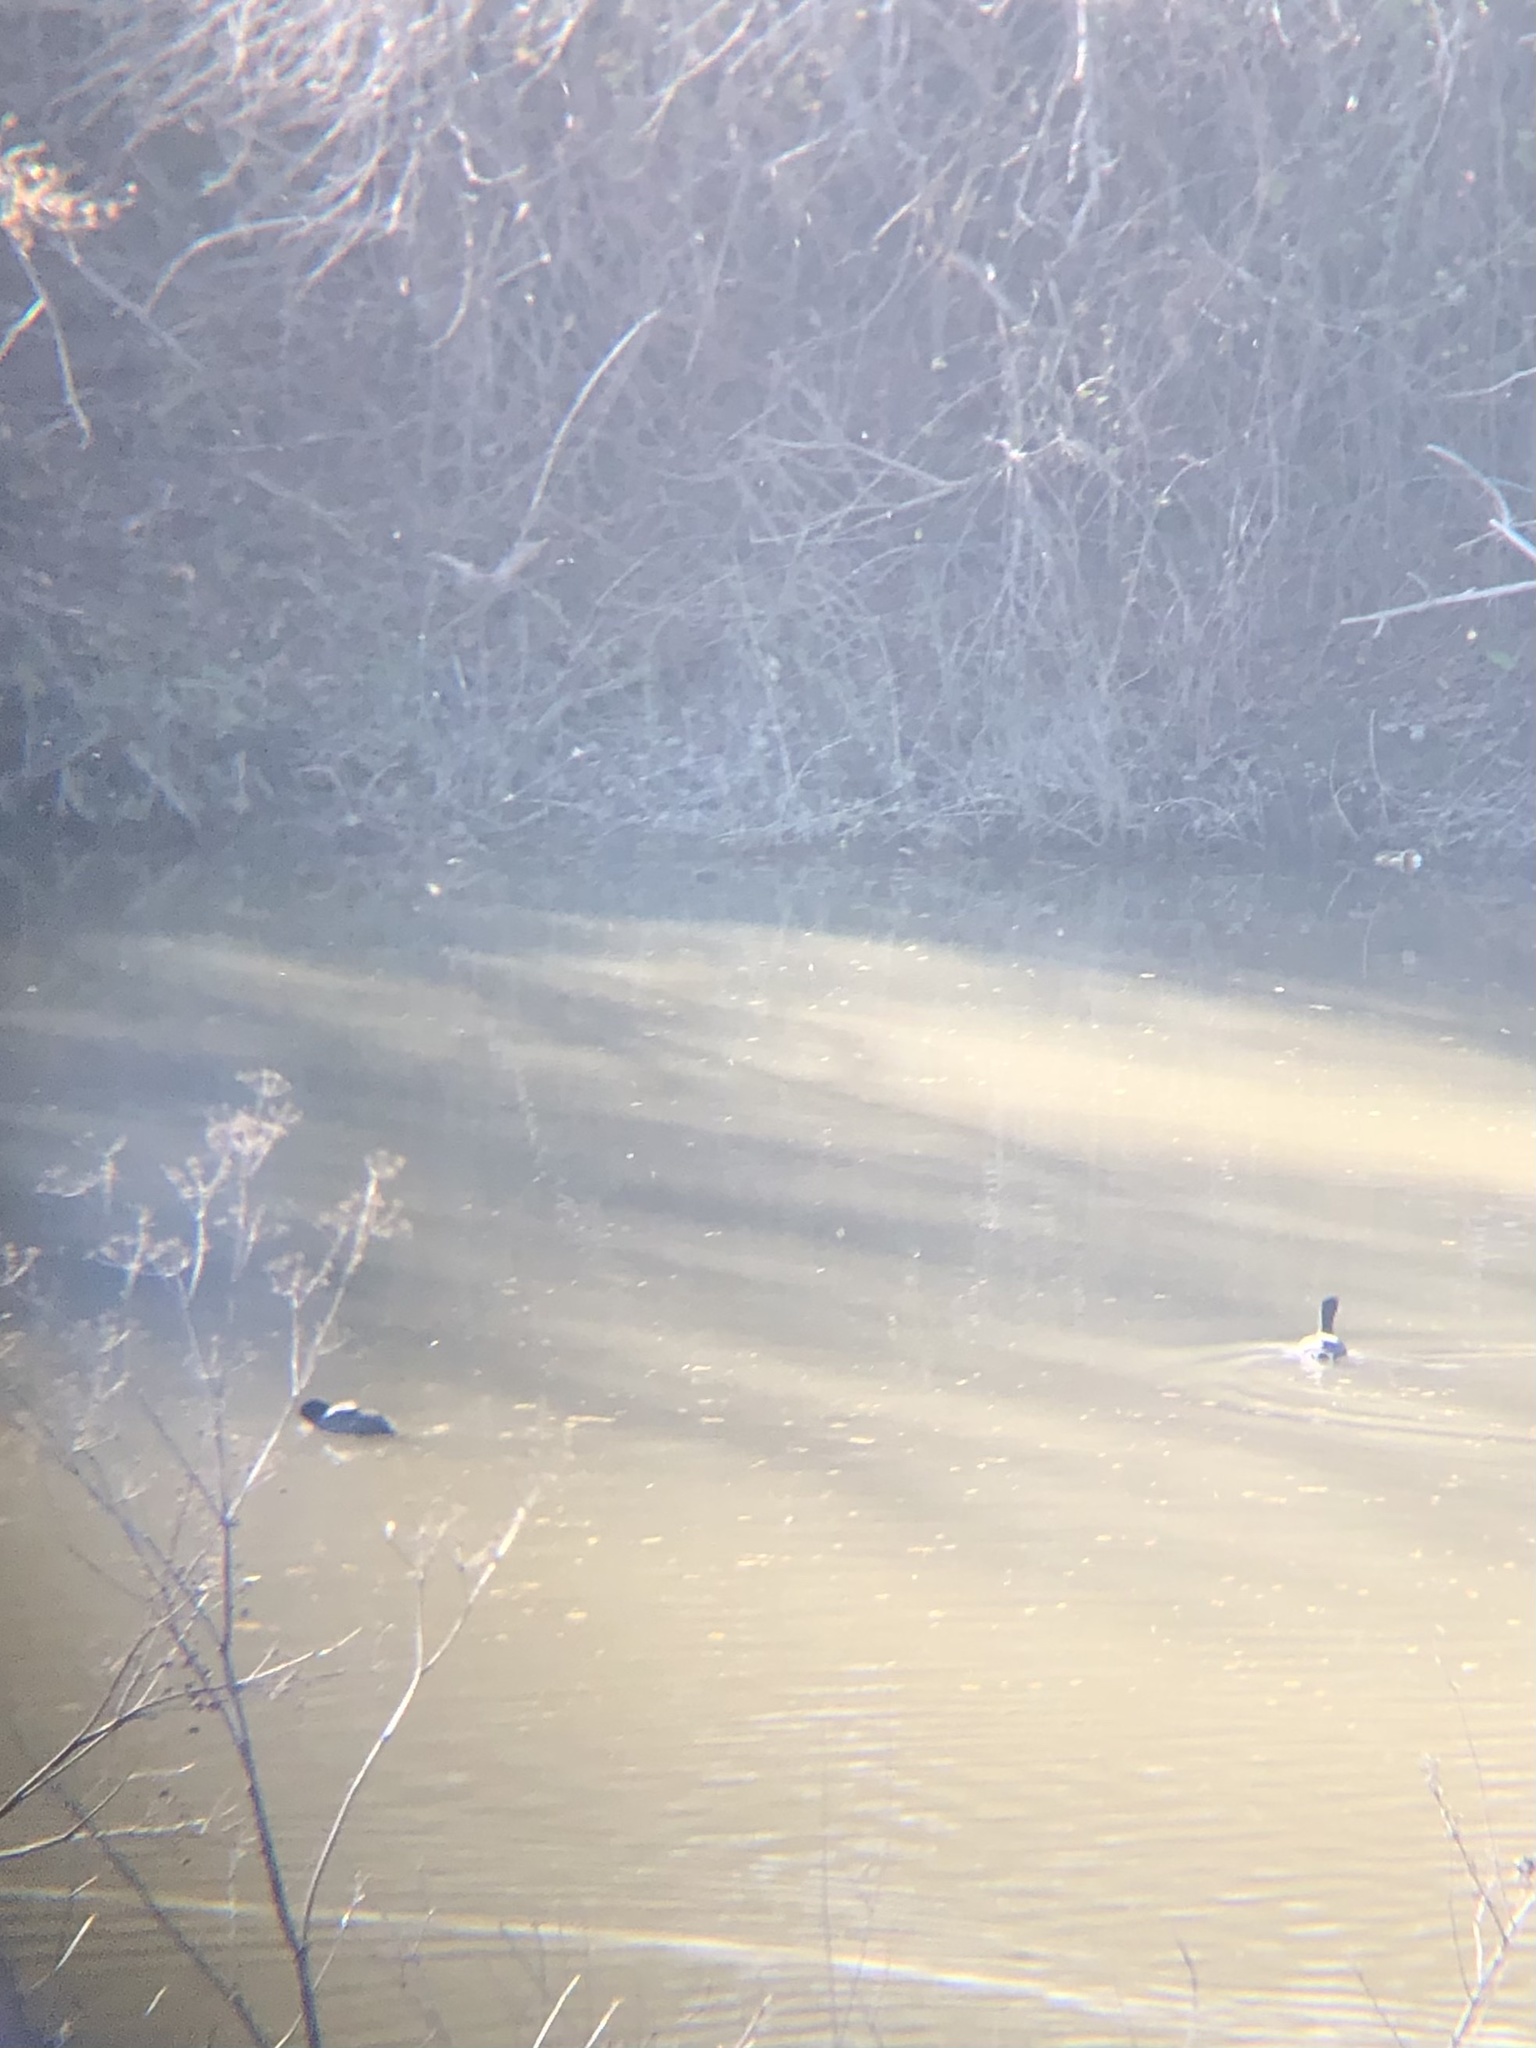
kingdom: Animalia
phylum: Chordata
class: Aves
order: Gruiformes
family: Rallidae
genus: Fulica
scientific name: Fulica americana
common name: American coot
